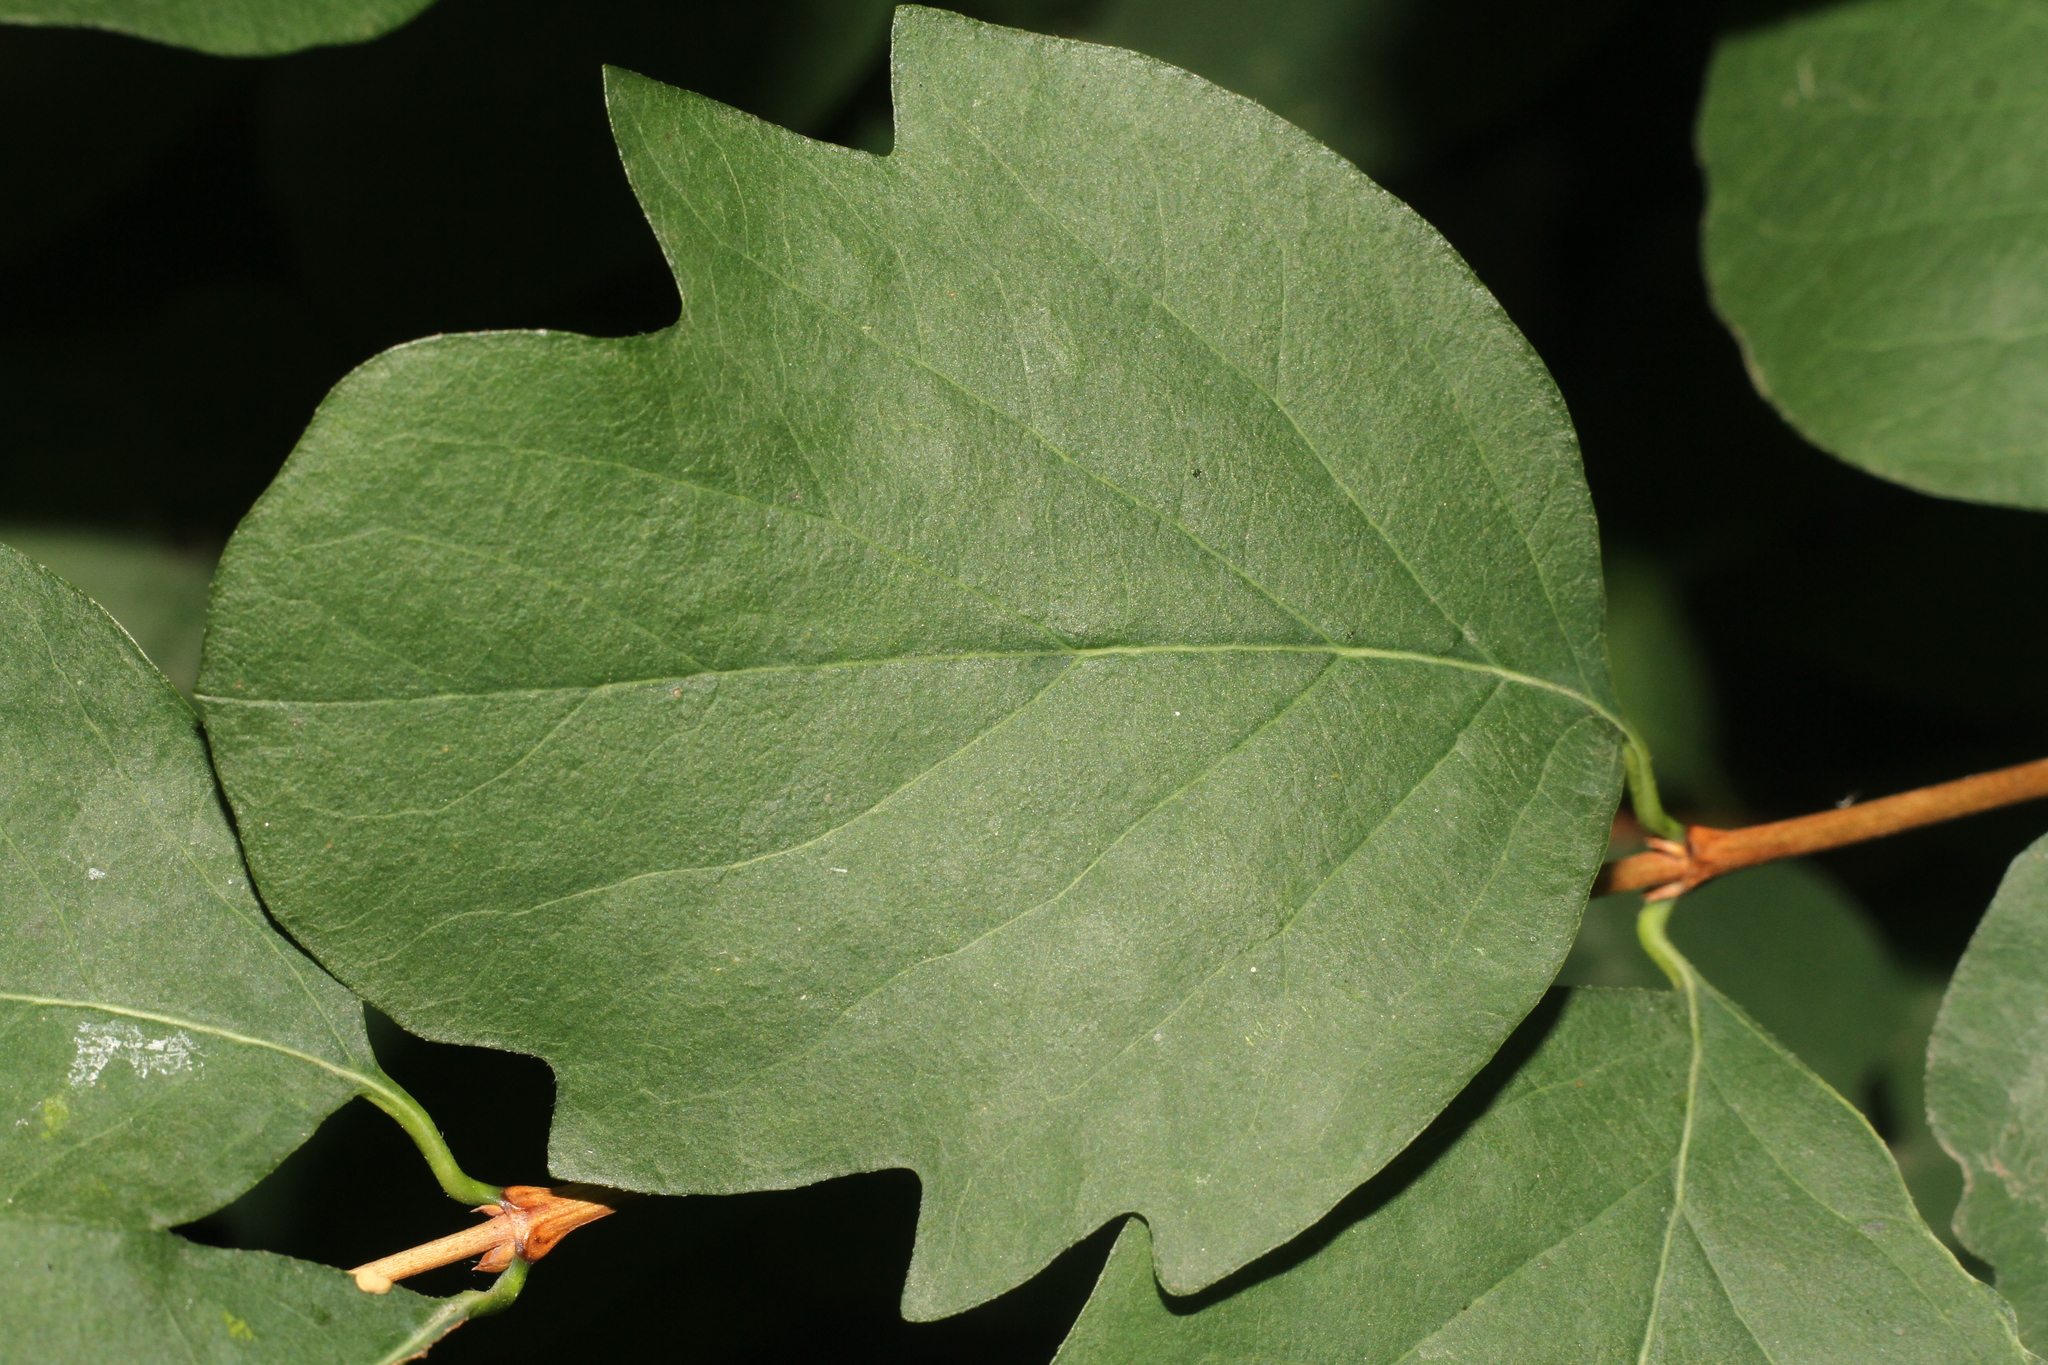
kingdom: Plantae
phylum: Tracheophyta
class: Magnoliopsida
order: Dipsacales
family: Caprifoliaceae
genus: Symphoricarpos
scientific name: Symphoricarpos albus
